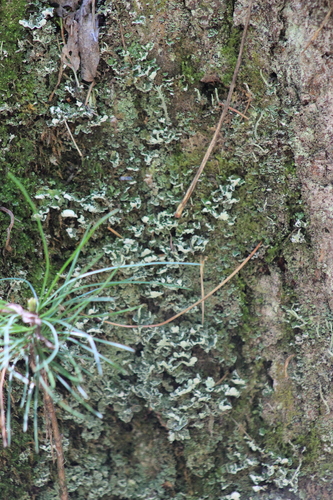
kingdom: Fungi
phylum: Ascomycota
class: Lecanoromycetes
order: Lecanorales
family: Cladoniaceae
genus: Cladonia
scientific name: Cladonia
